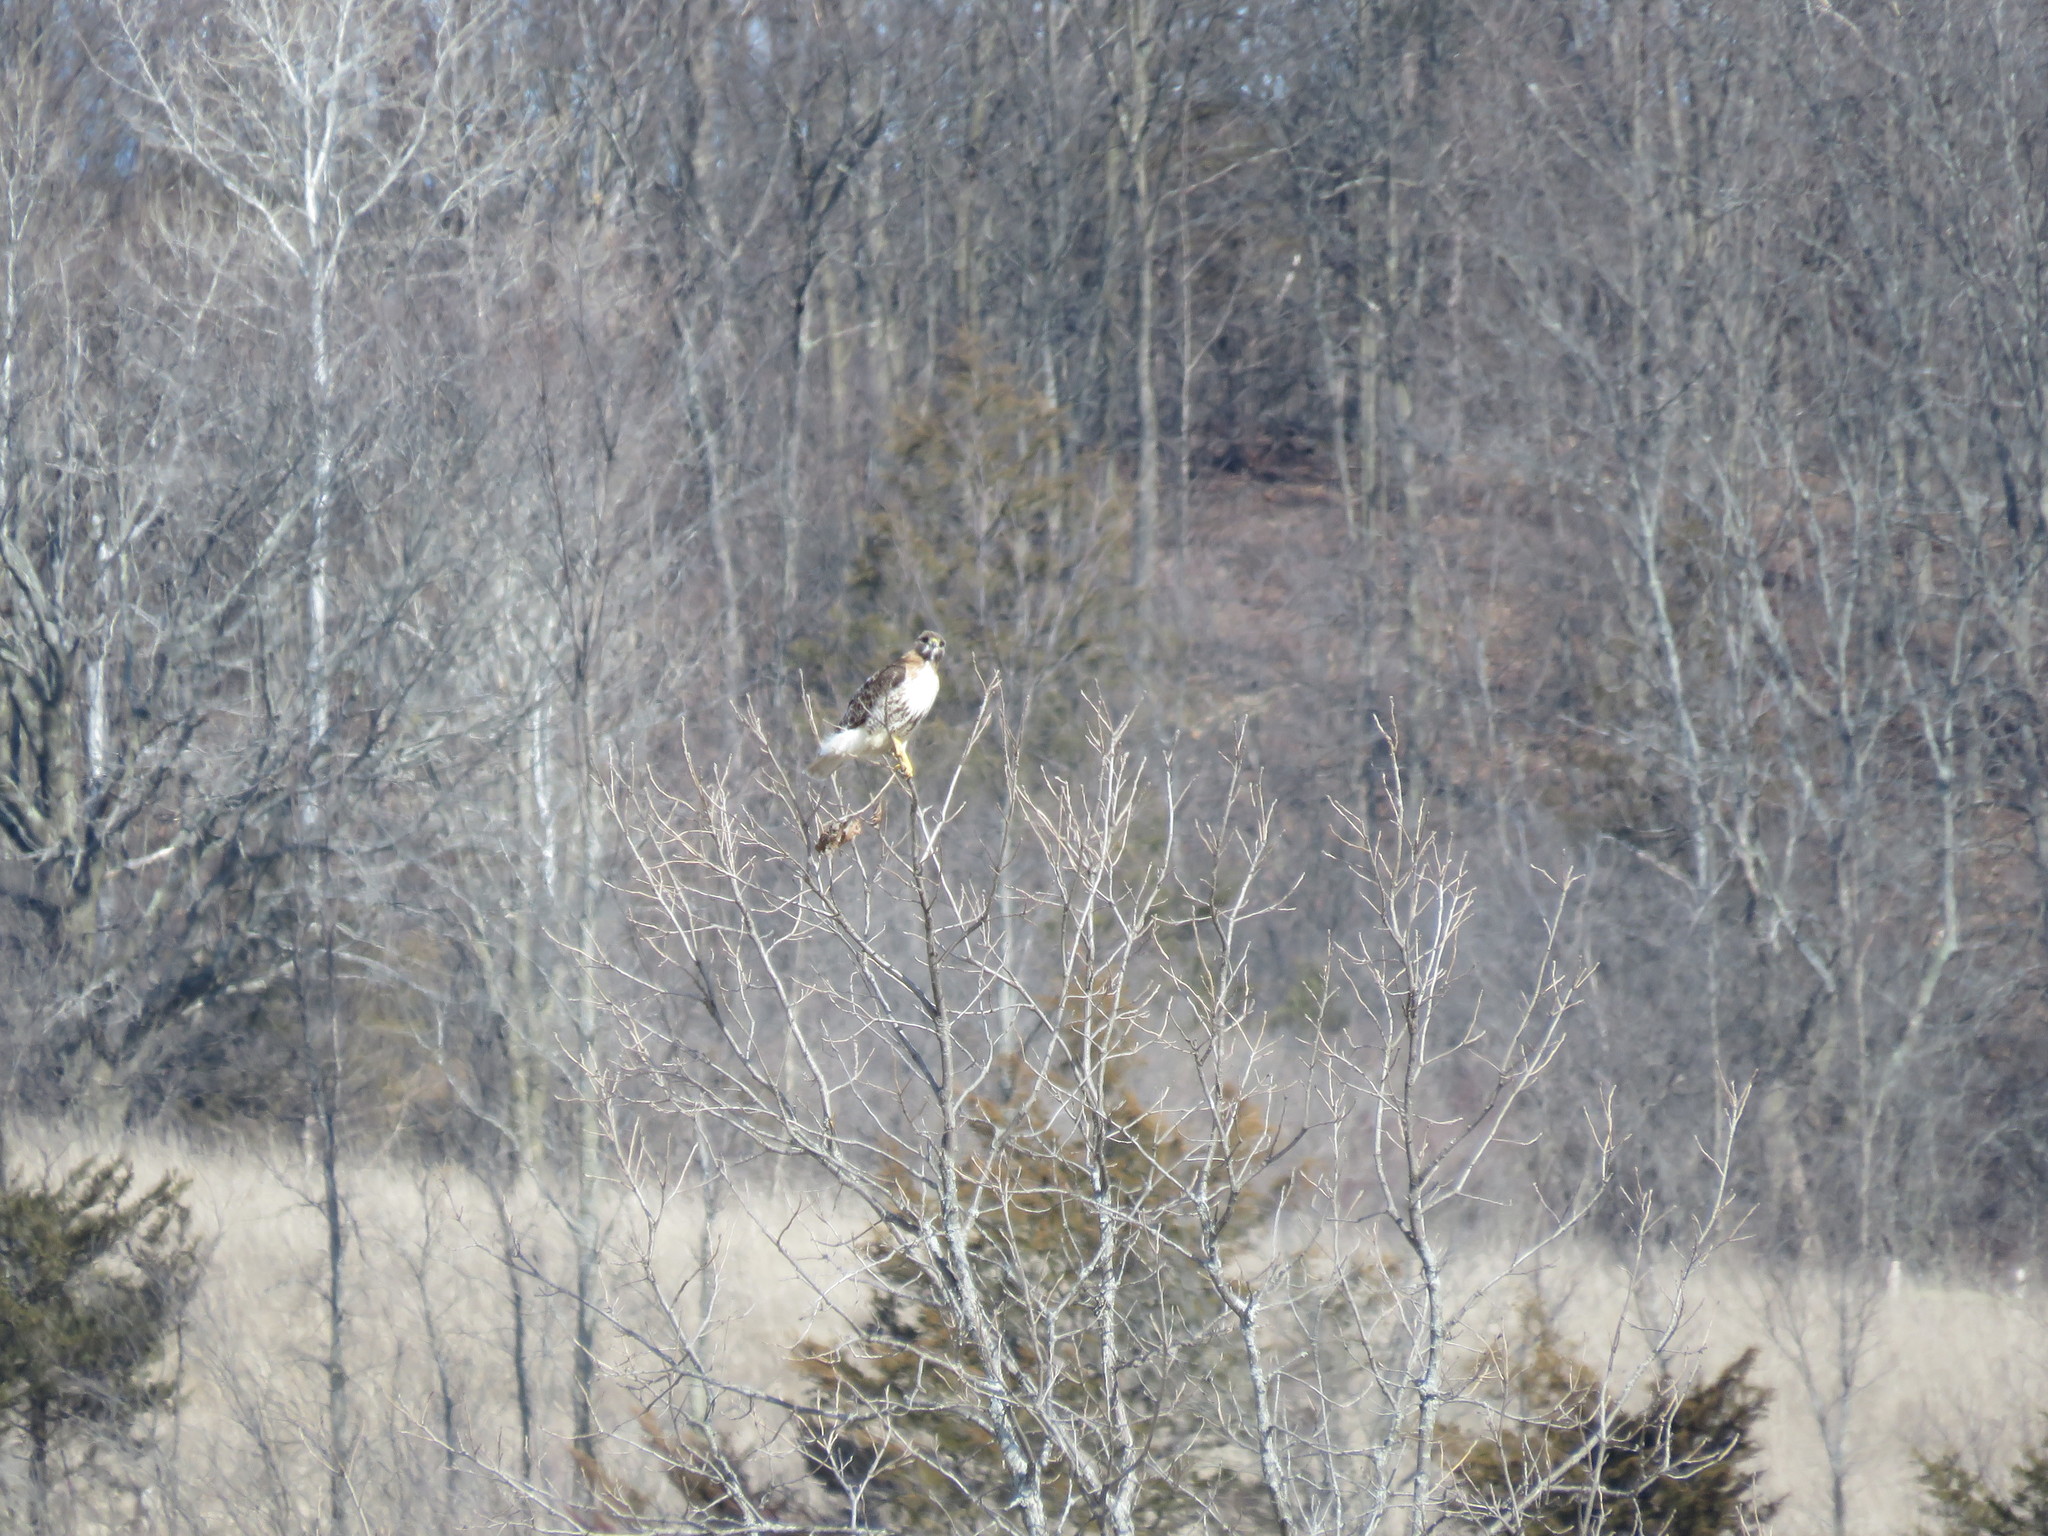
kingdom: Animalia
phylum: Chordata
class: Aves
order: Accipitriformes
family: Accipitridae
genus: Buteo
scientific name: Buteo jamaicensis
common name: Red-tailed hawk
